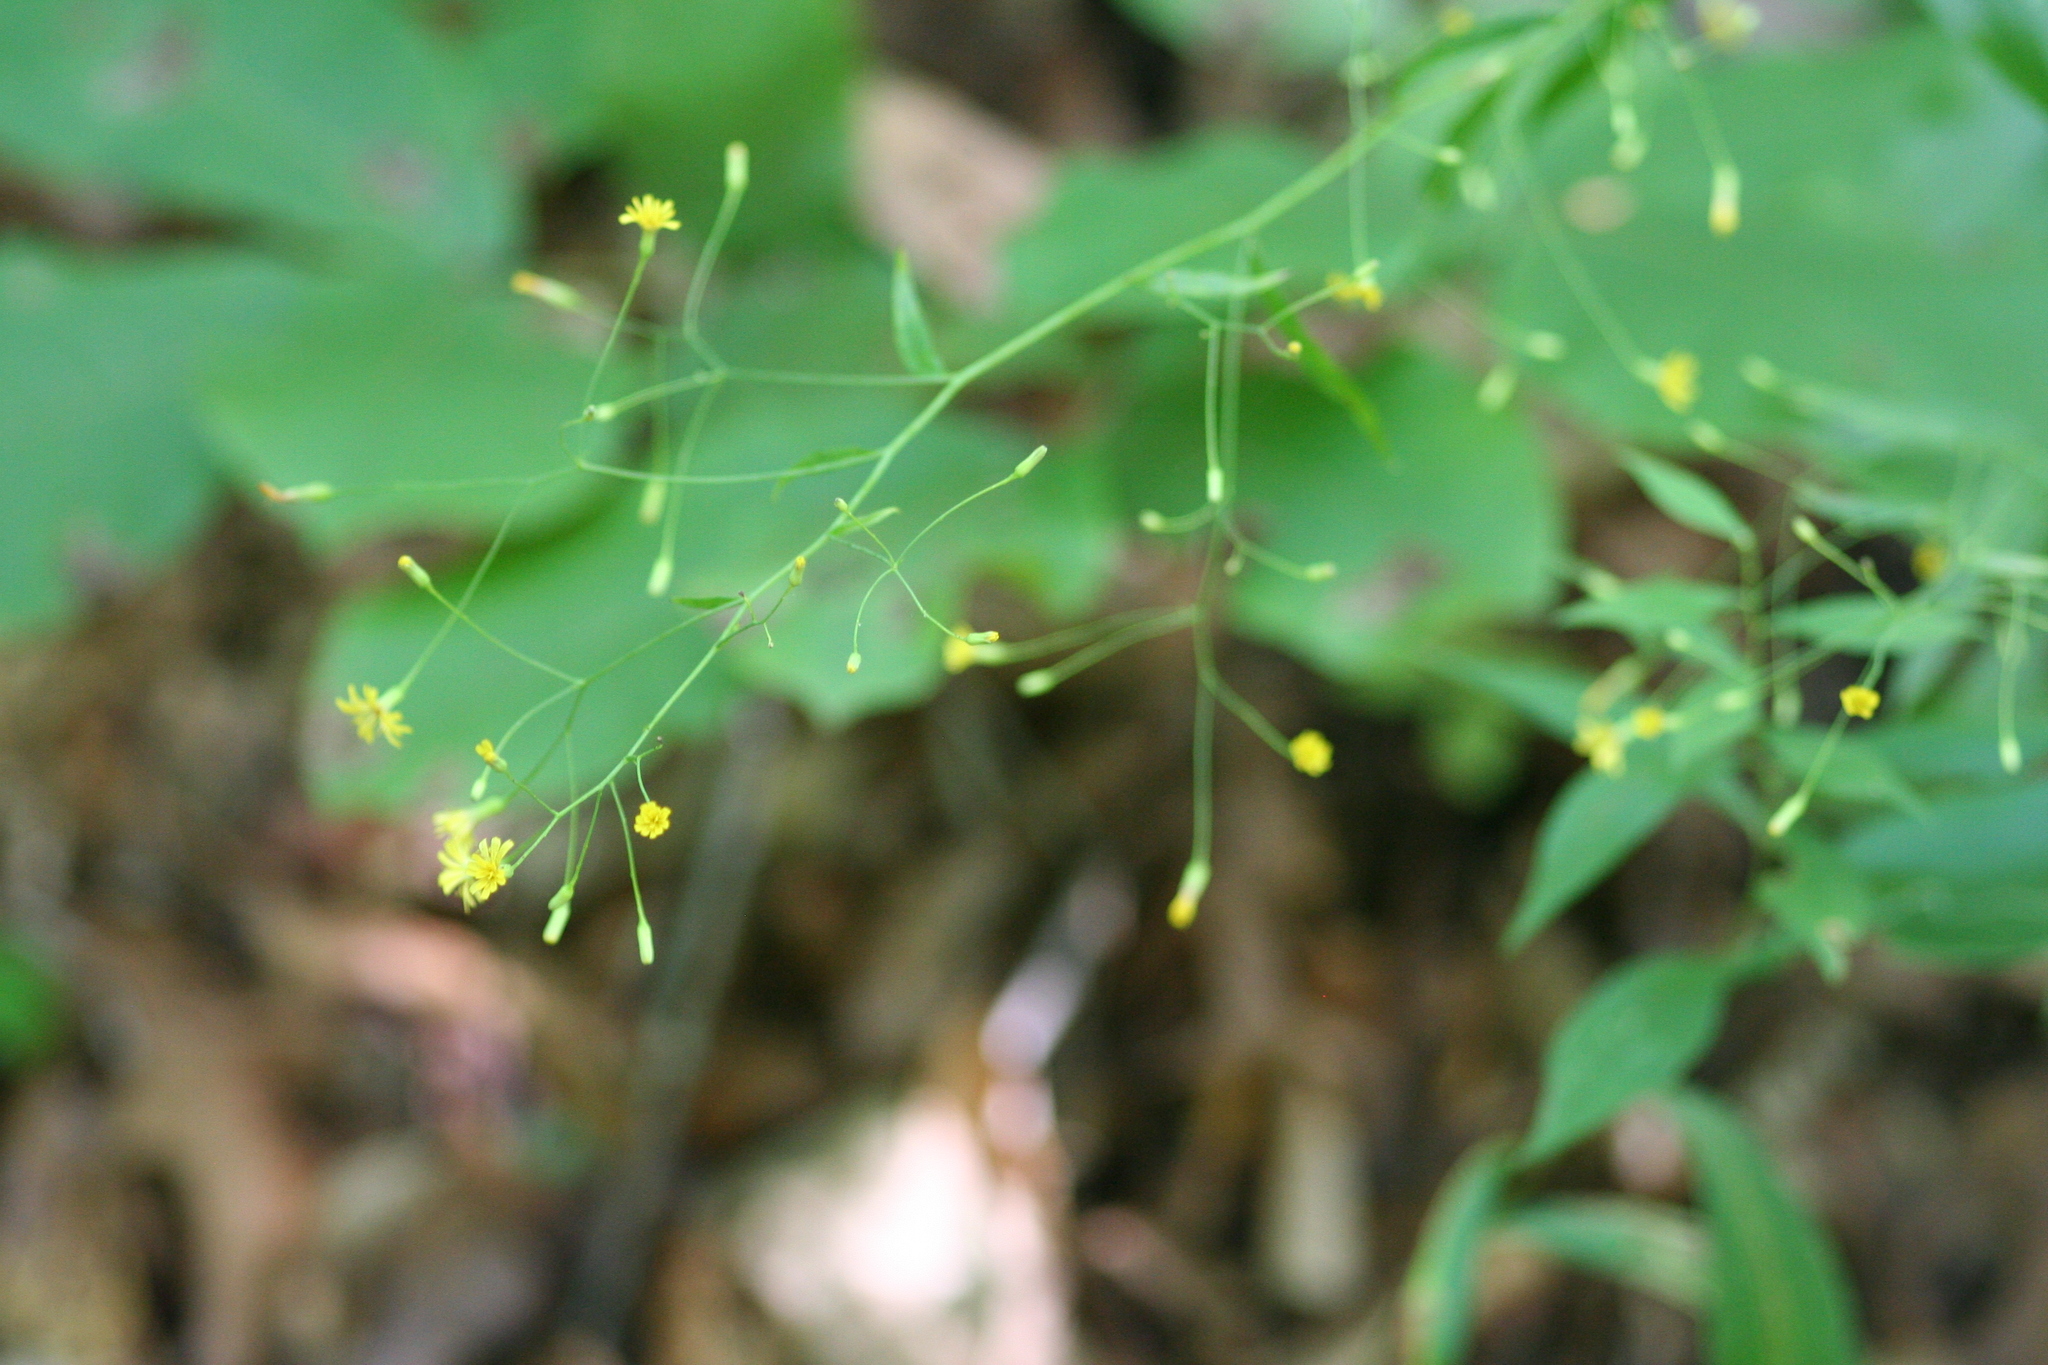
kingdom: Plantae
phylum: Tracheophyta
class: Magnoliopsida
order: Asterales
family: Asteraceae
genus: Hieracium
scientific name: Hieracium paniculatum
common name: Allegheny hawkweed
